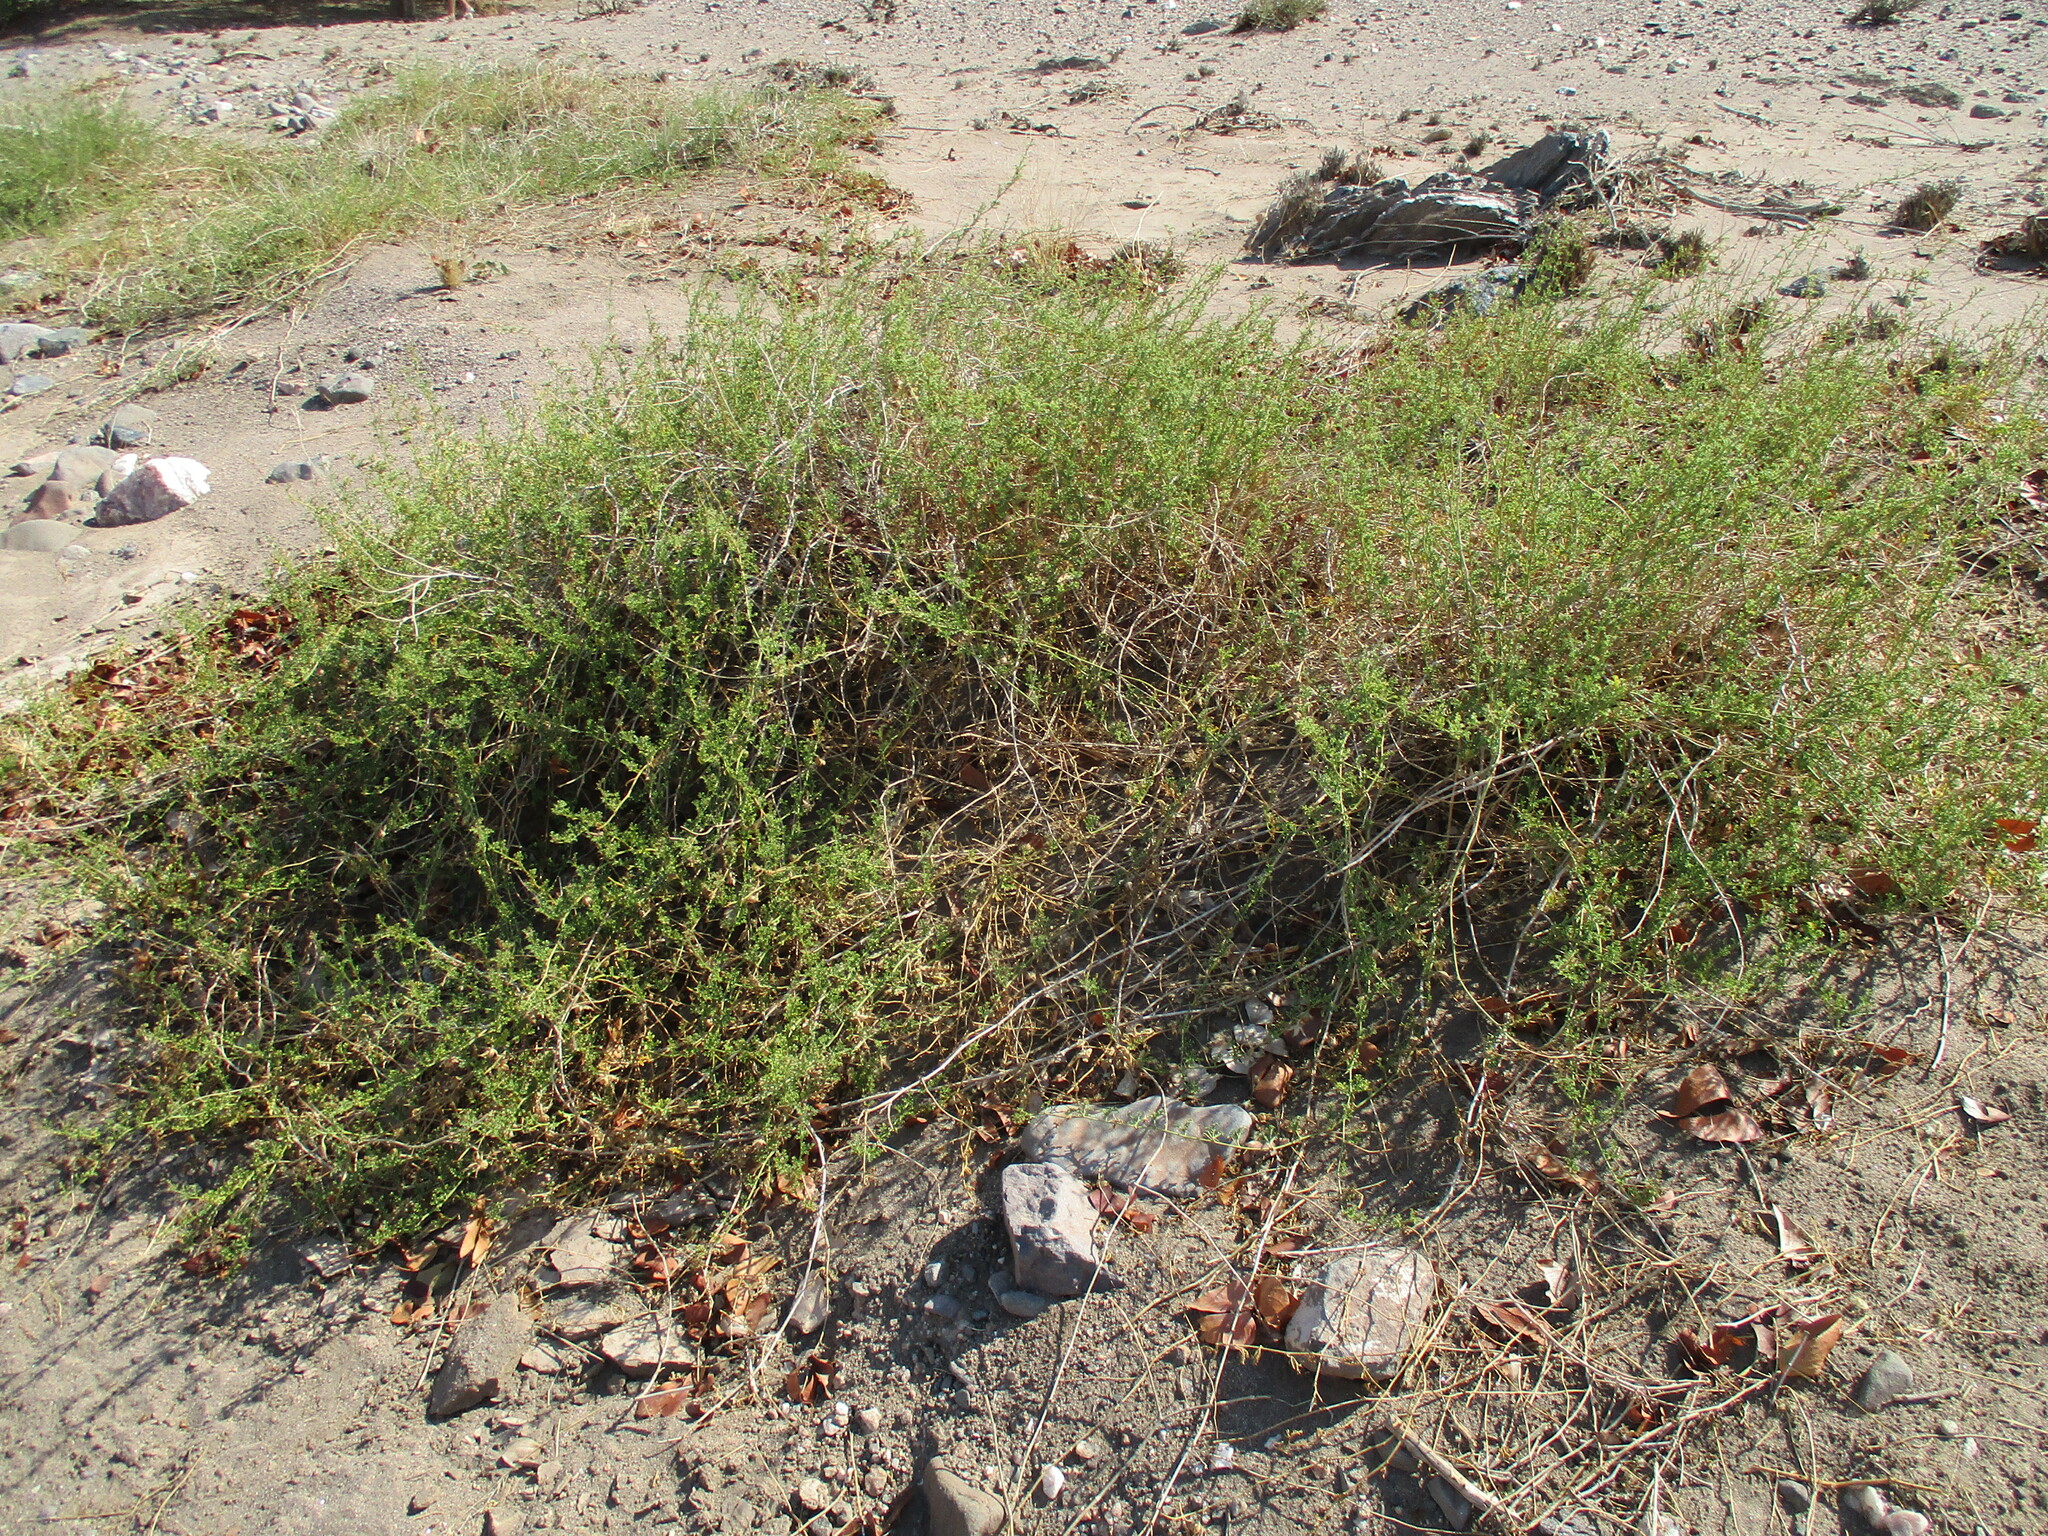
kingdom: Plantae
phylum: Tracheophyta
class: Magnoliopsida
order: Solanales
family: Convolvulaceae
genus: Distimake
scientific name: Distimake guerichii
